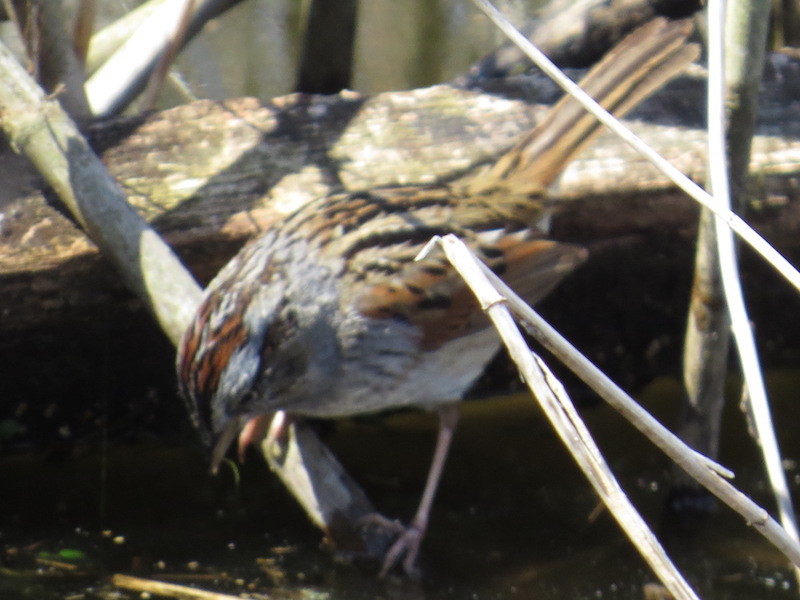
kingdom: Animalia
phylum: Chordata
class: Aves
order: Passeriformes
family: Passerellidae
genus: Melospiza
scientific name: Melospiza georgiana
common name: Swamp sparrow
